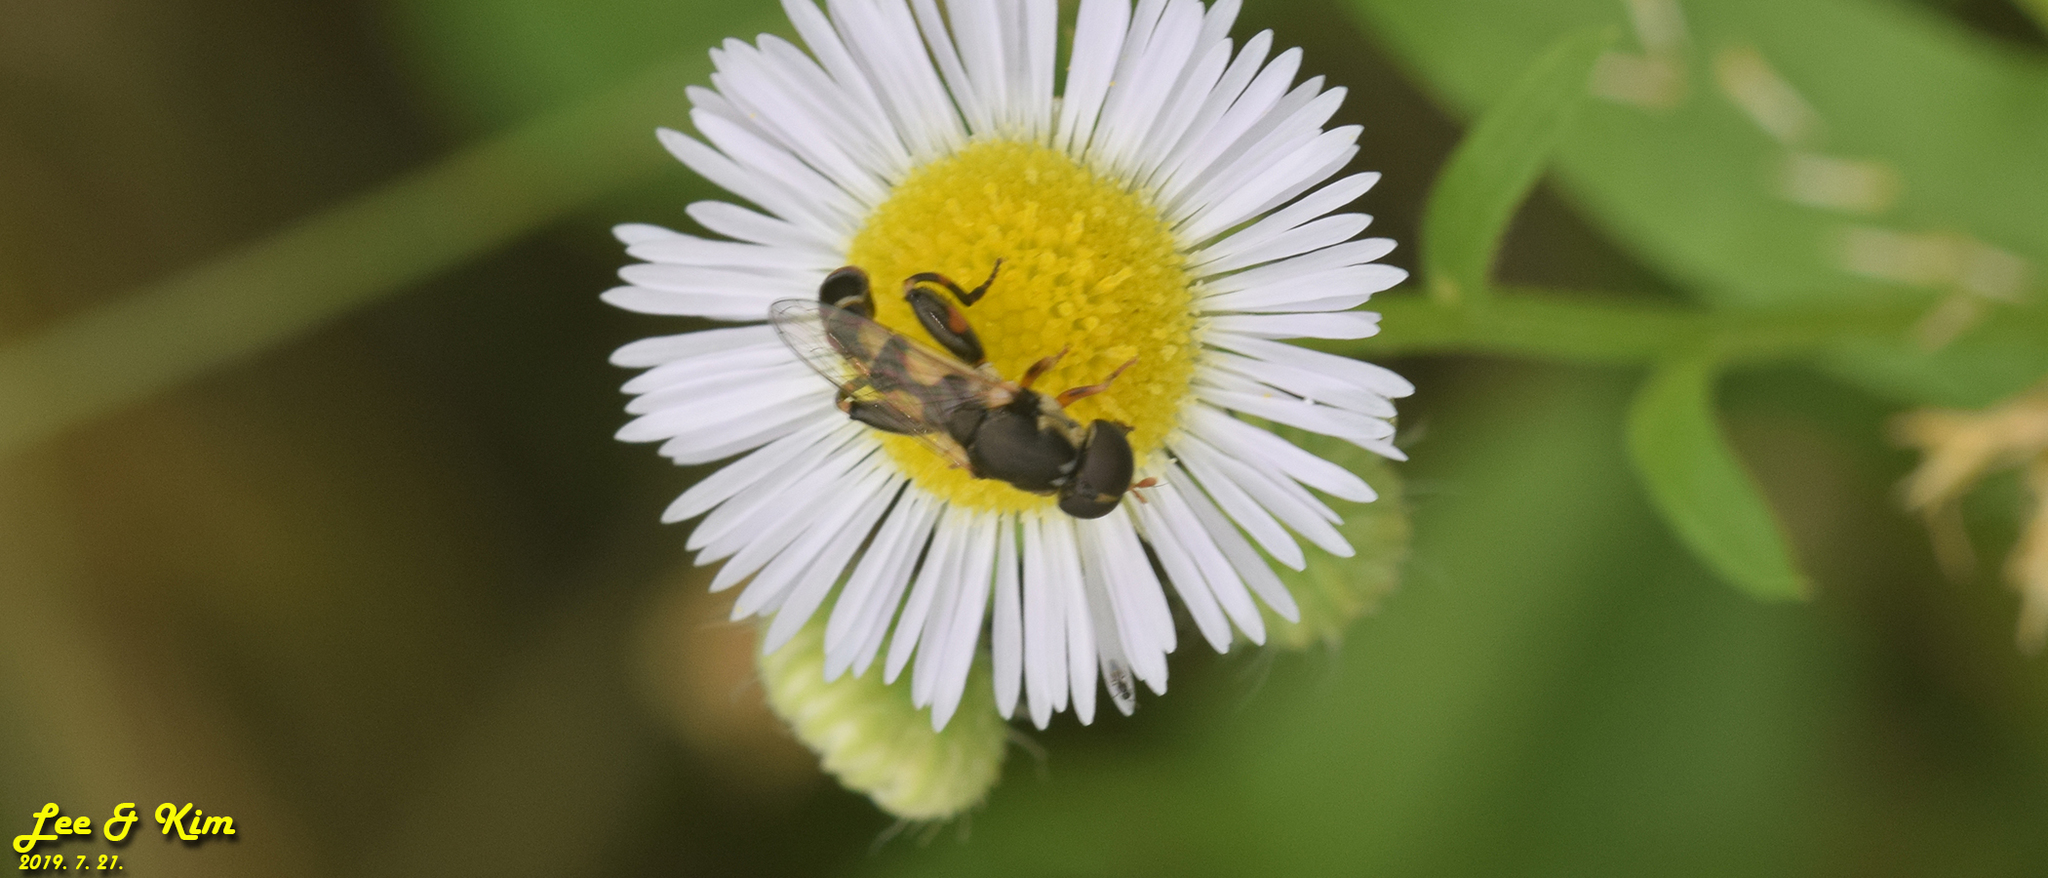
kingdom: Animalia
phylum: Arthropoda
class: Insecta
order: Diptera
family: Syrphidae
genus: Syritta
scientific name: Syritta pipiens
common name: Hover fly
